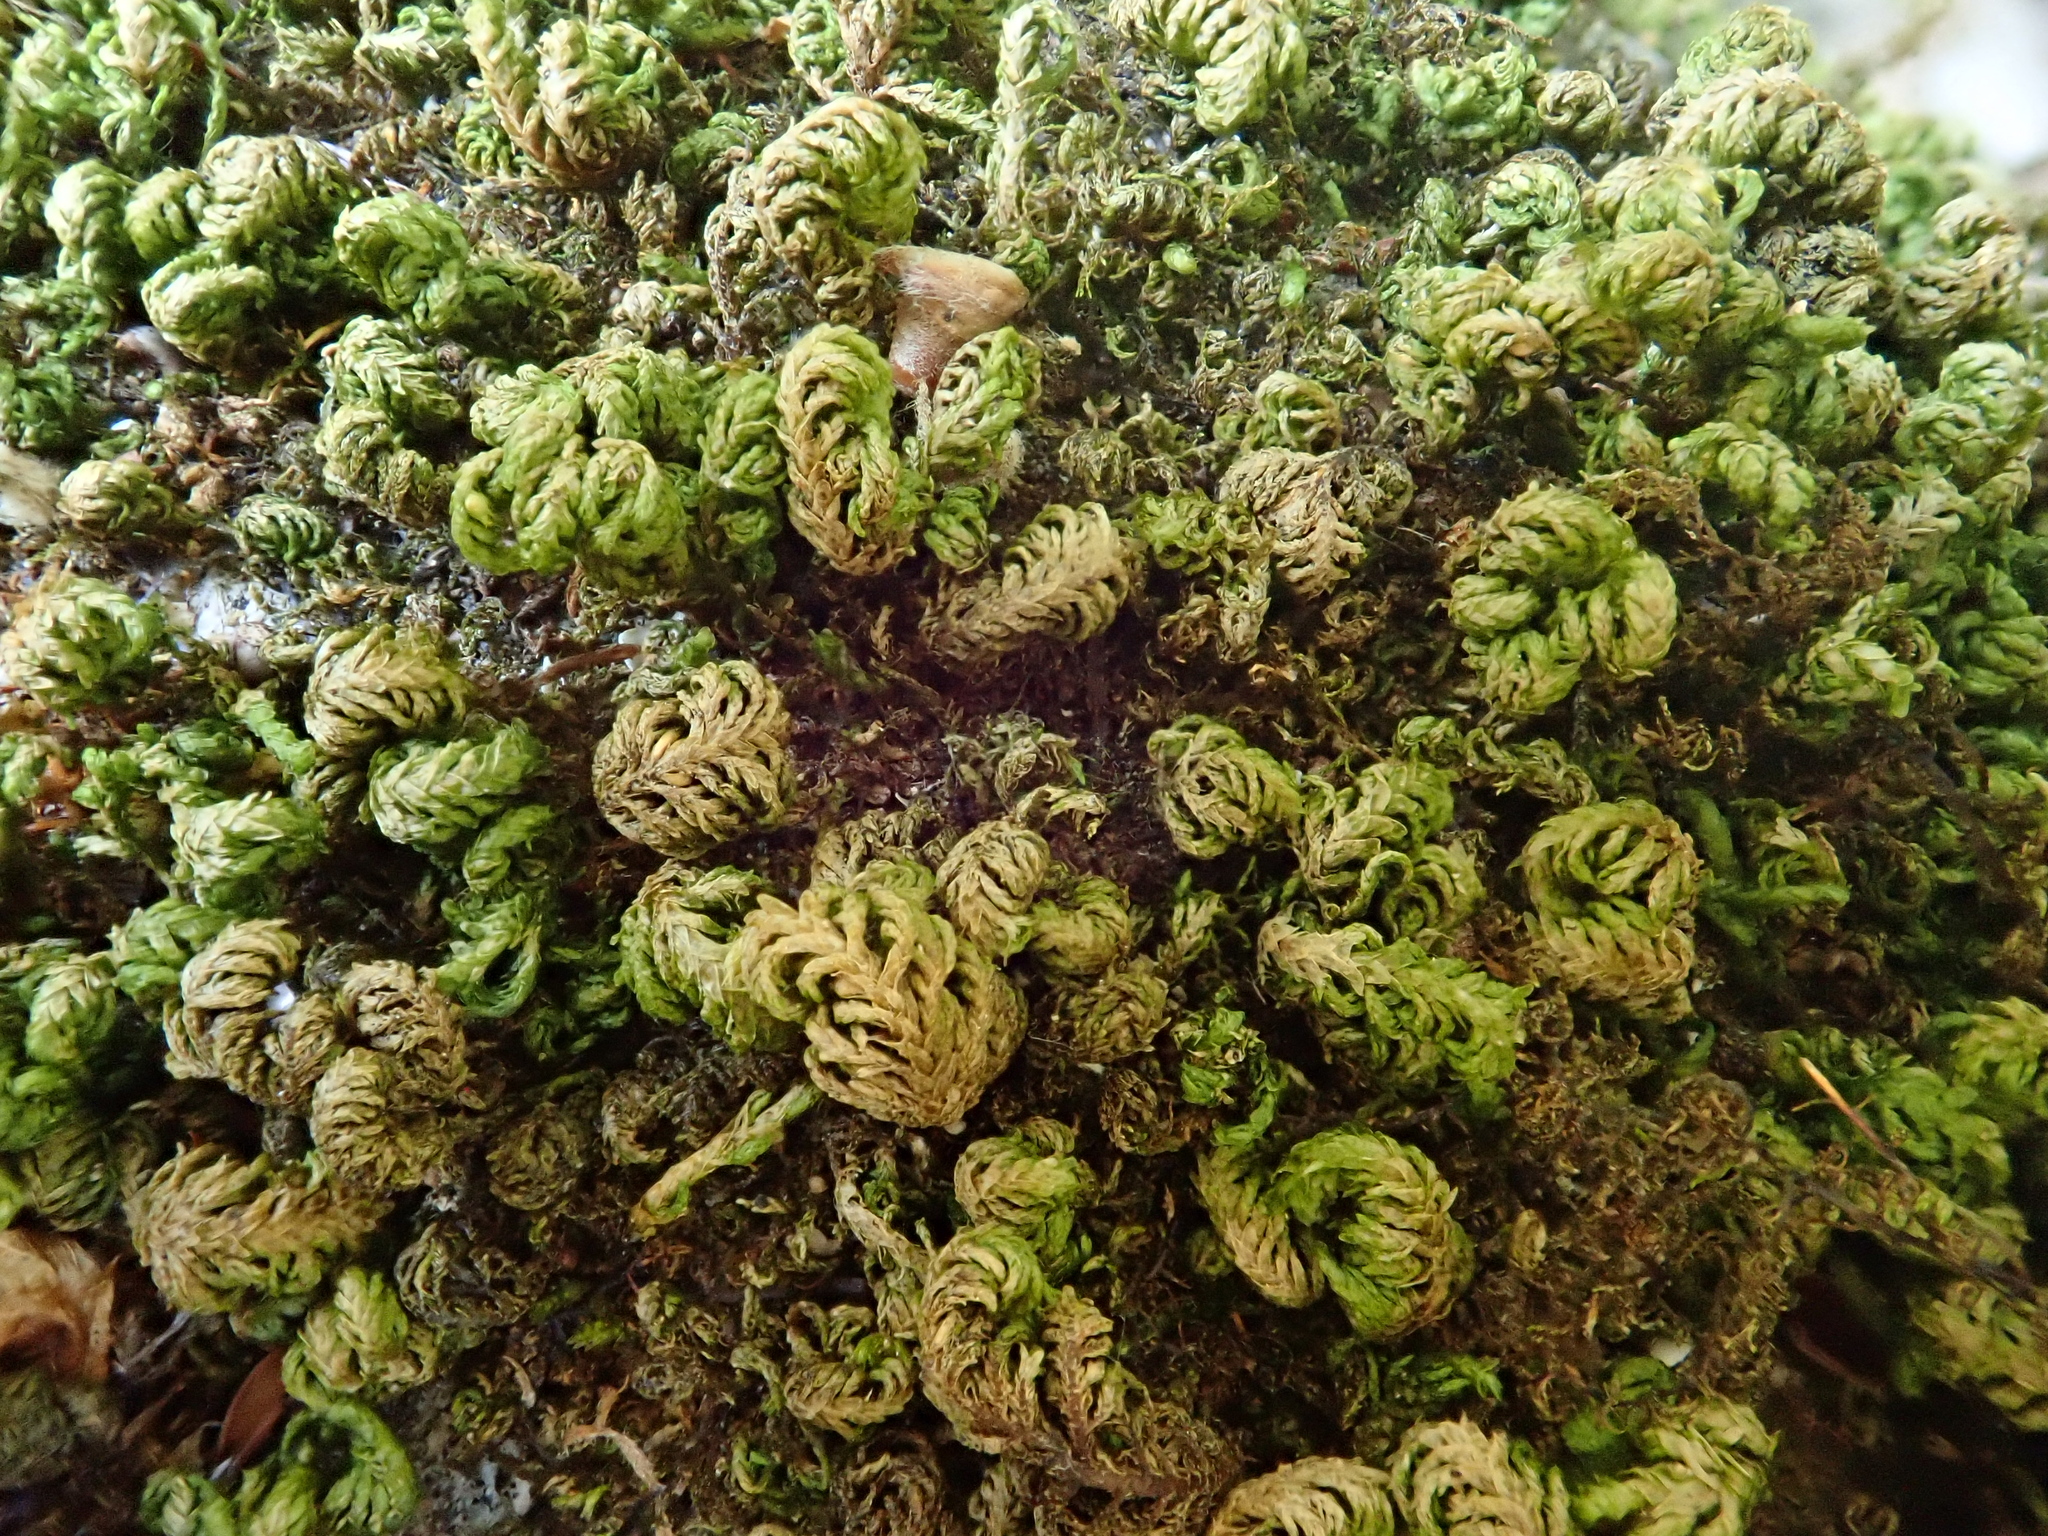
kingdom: Plantae
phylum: Bryophyta
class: Bryopsida
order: Hypnales
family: Neckeraceae
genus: Leptodon
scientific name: Leptodon smithii
